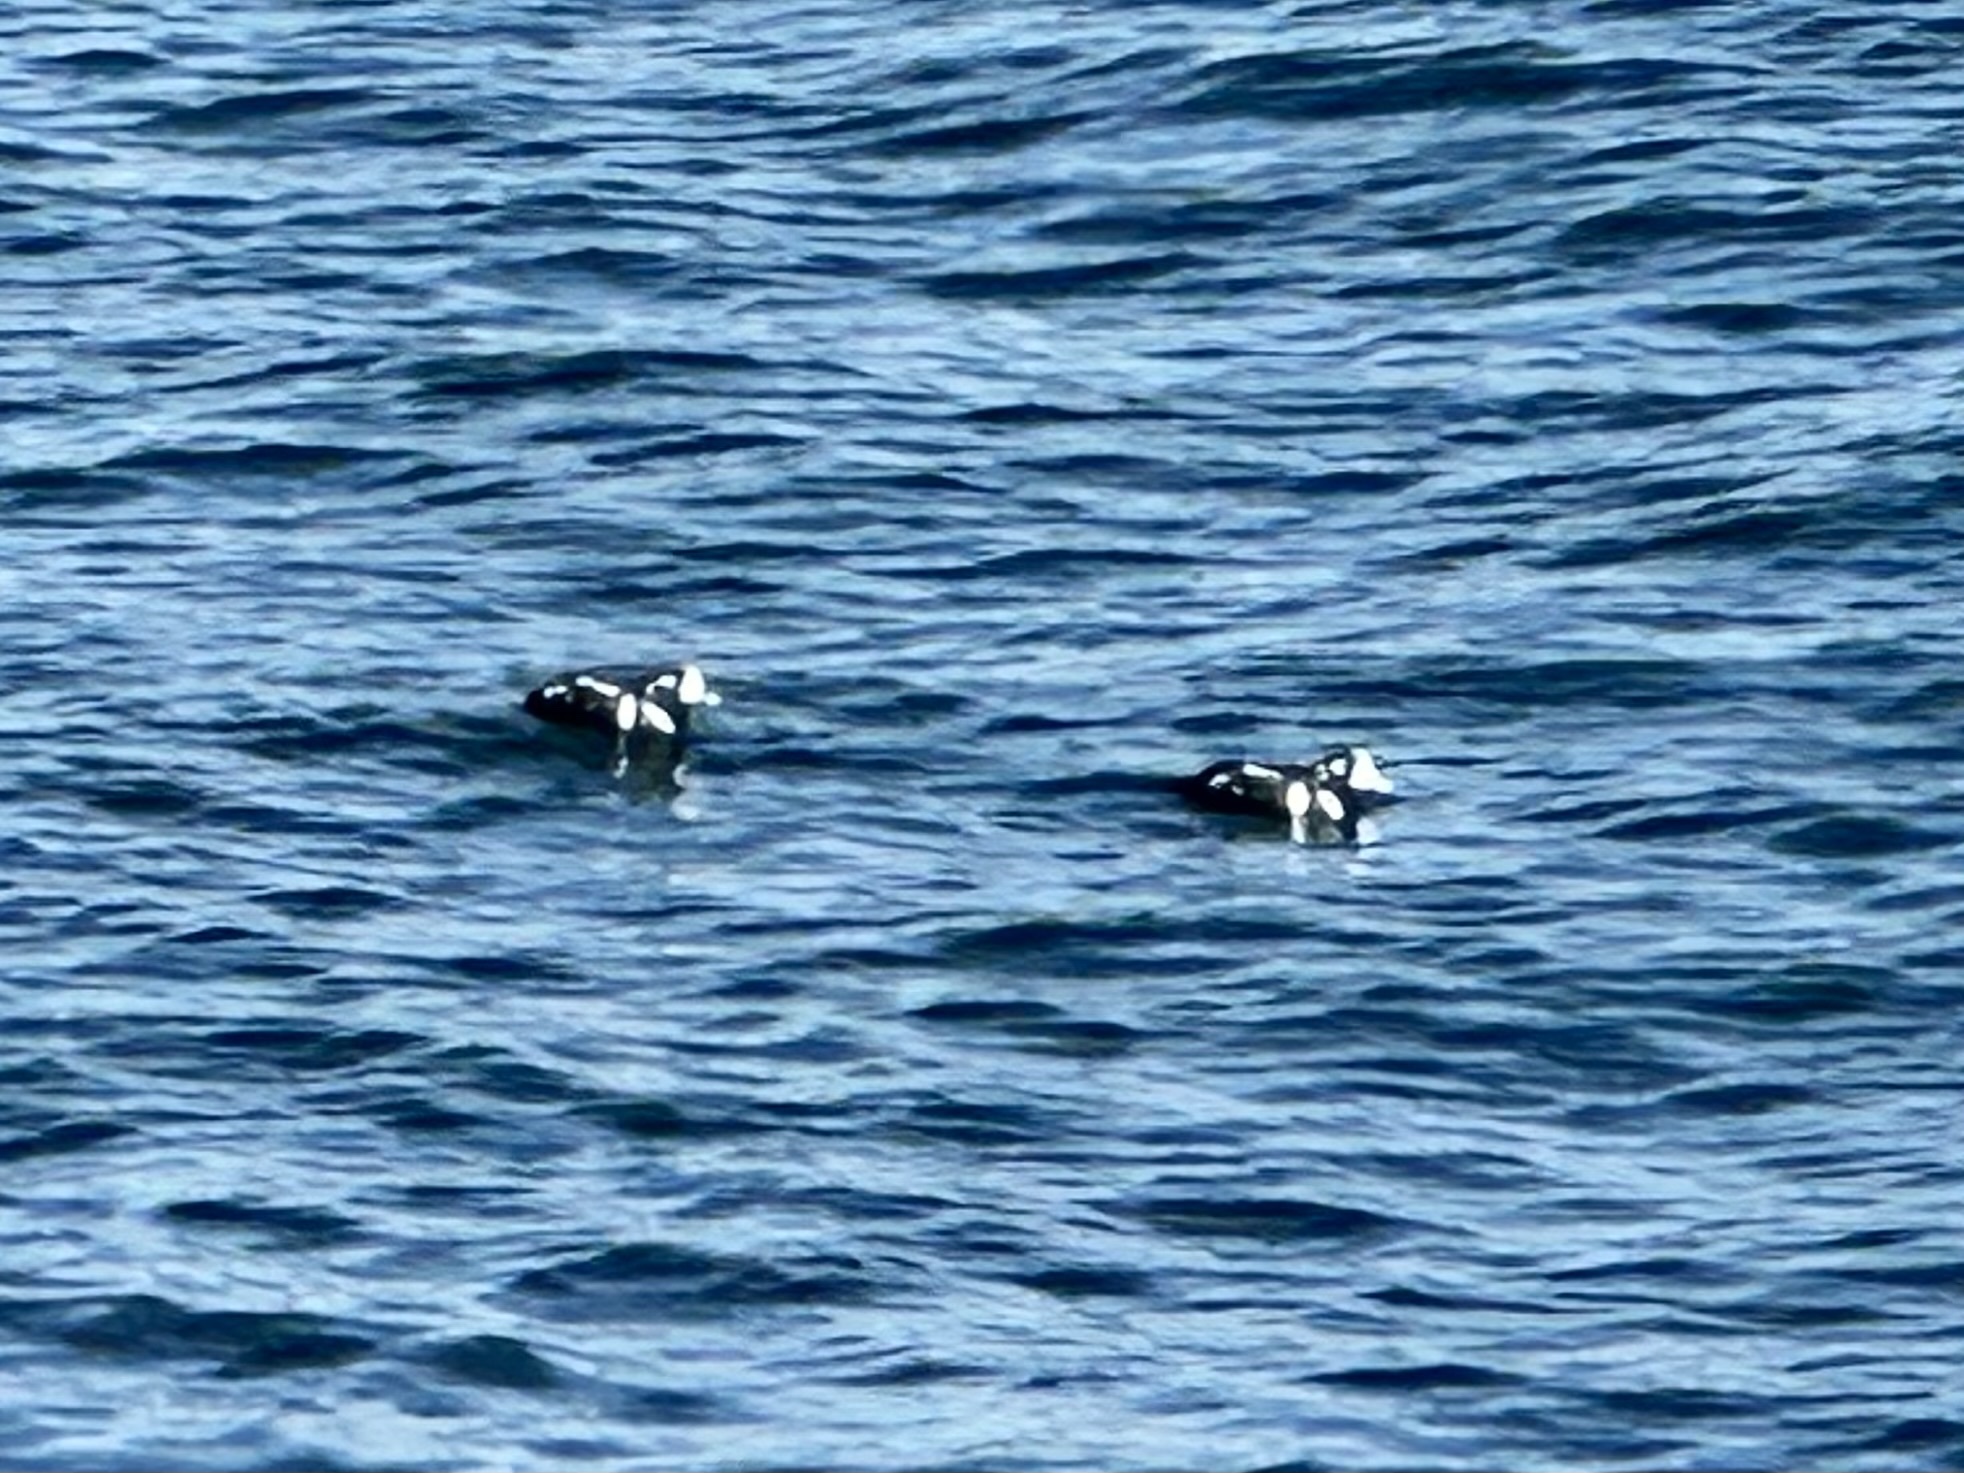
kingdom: Animalia
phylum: Chordata
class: Aves
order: Anseriformes
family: Anatidae
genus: Histrionicus
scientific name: Histrionicus histrionicus
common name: Harlequin duck
